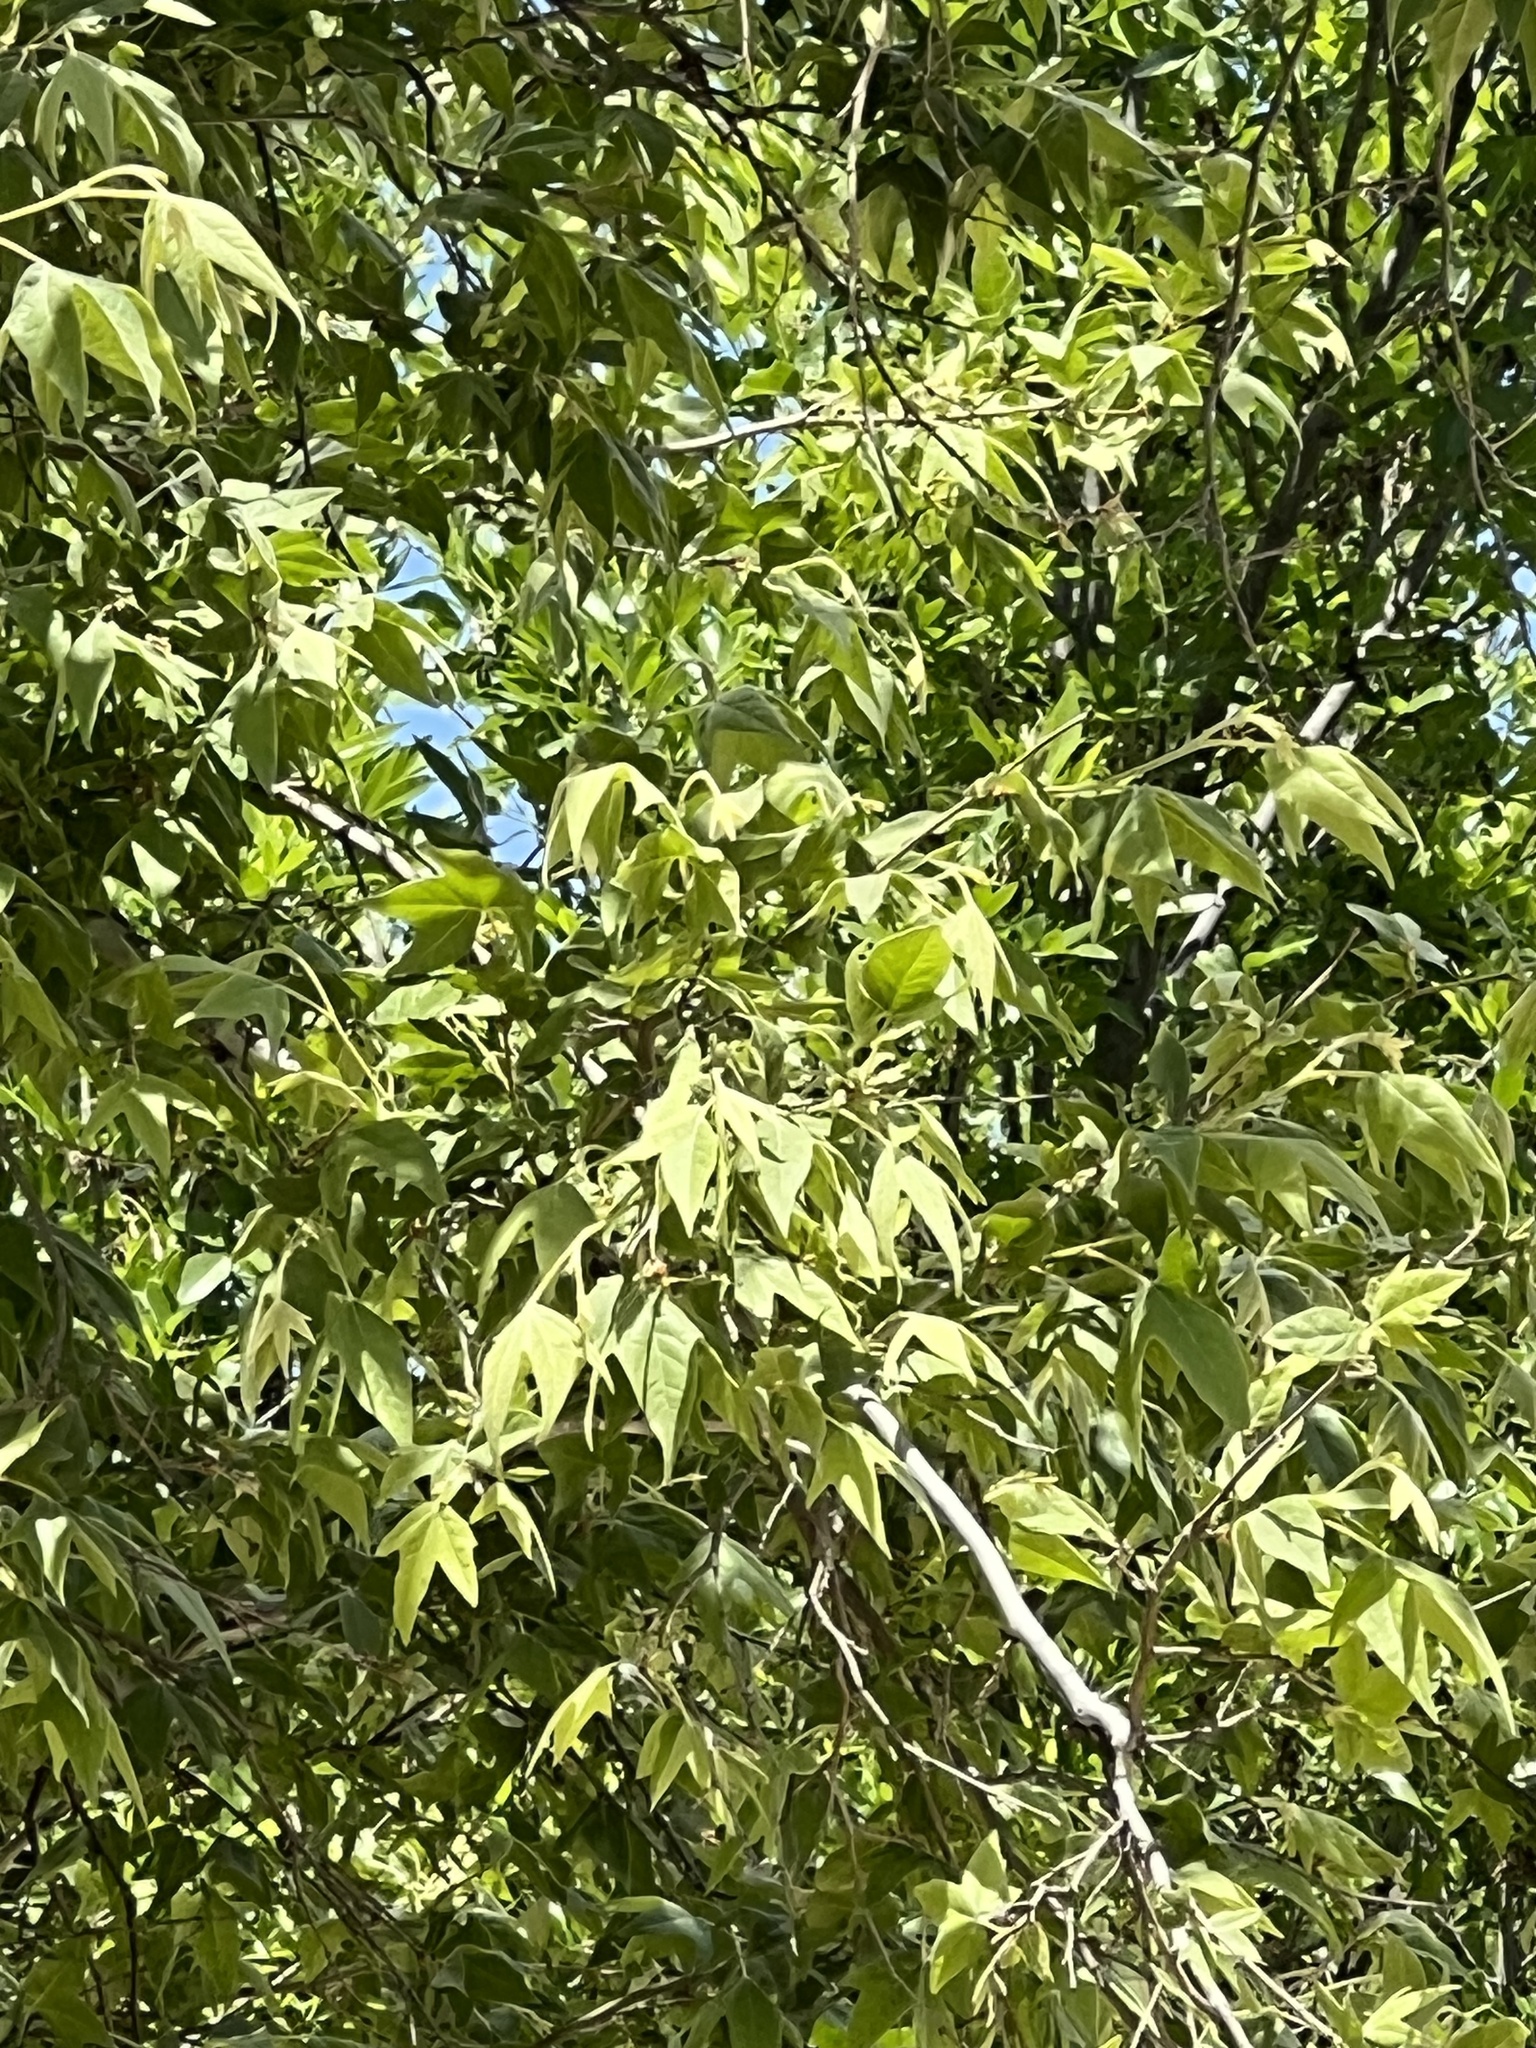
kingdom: Plantae
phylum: Tracheophyta
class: Magnoliopsida
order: Proteales
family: Platanaceae
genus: Platanus
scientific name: Platanus wrightii
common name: Arizona sycamore
